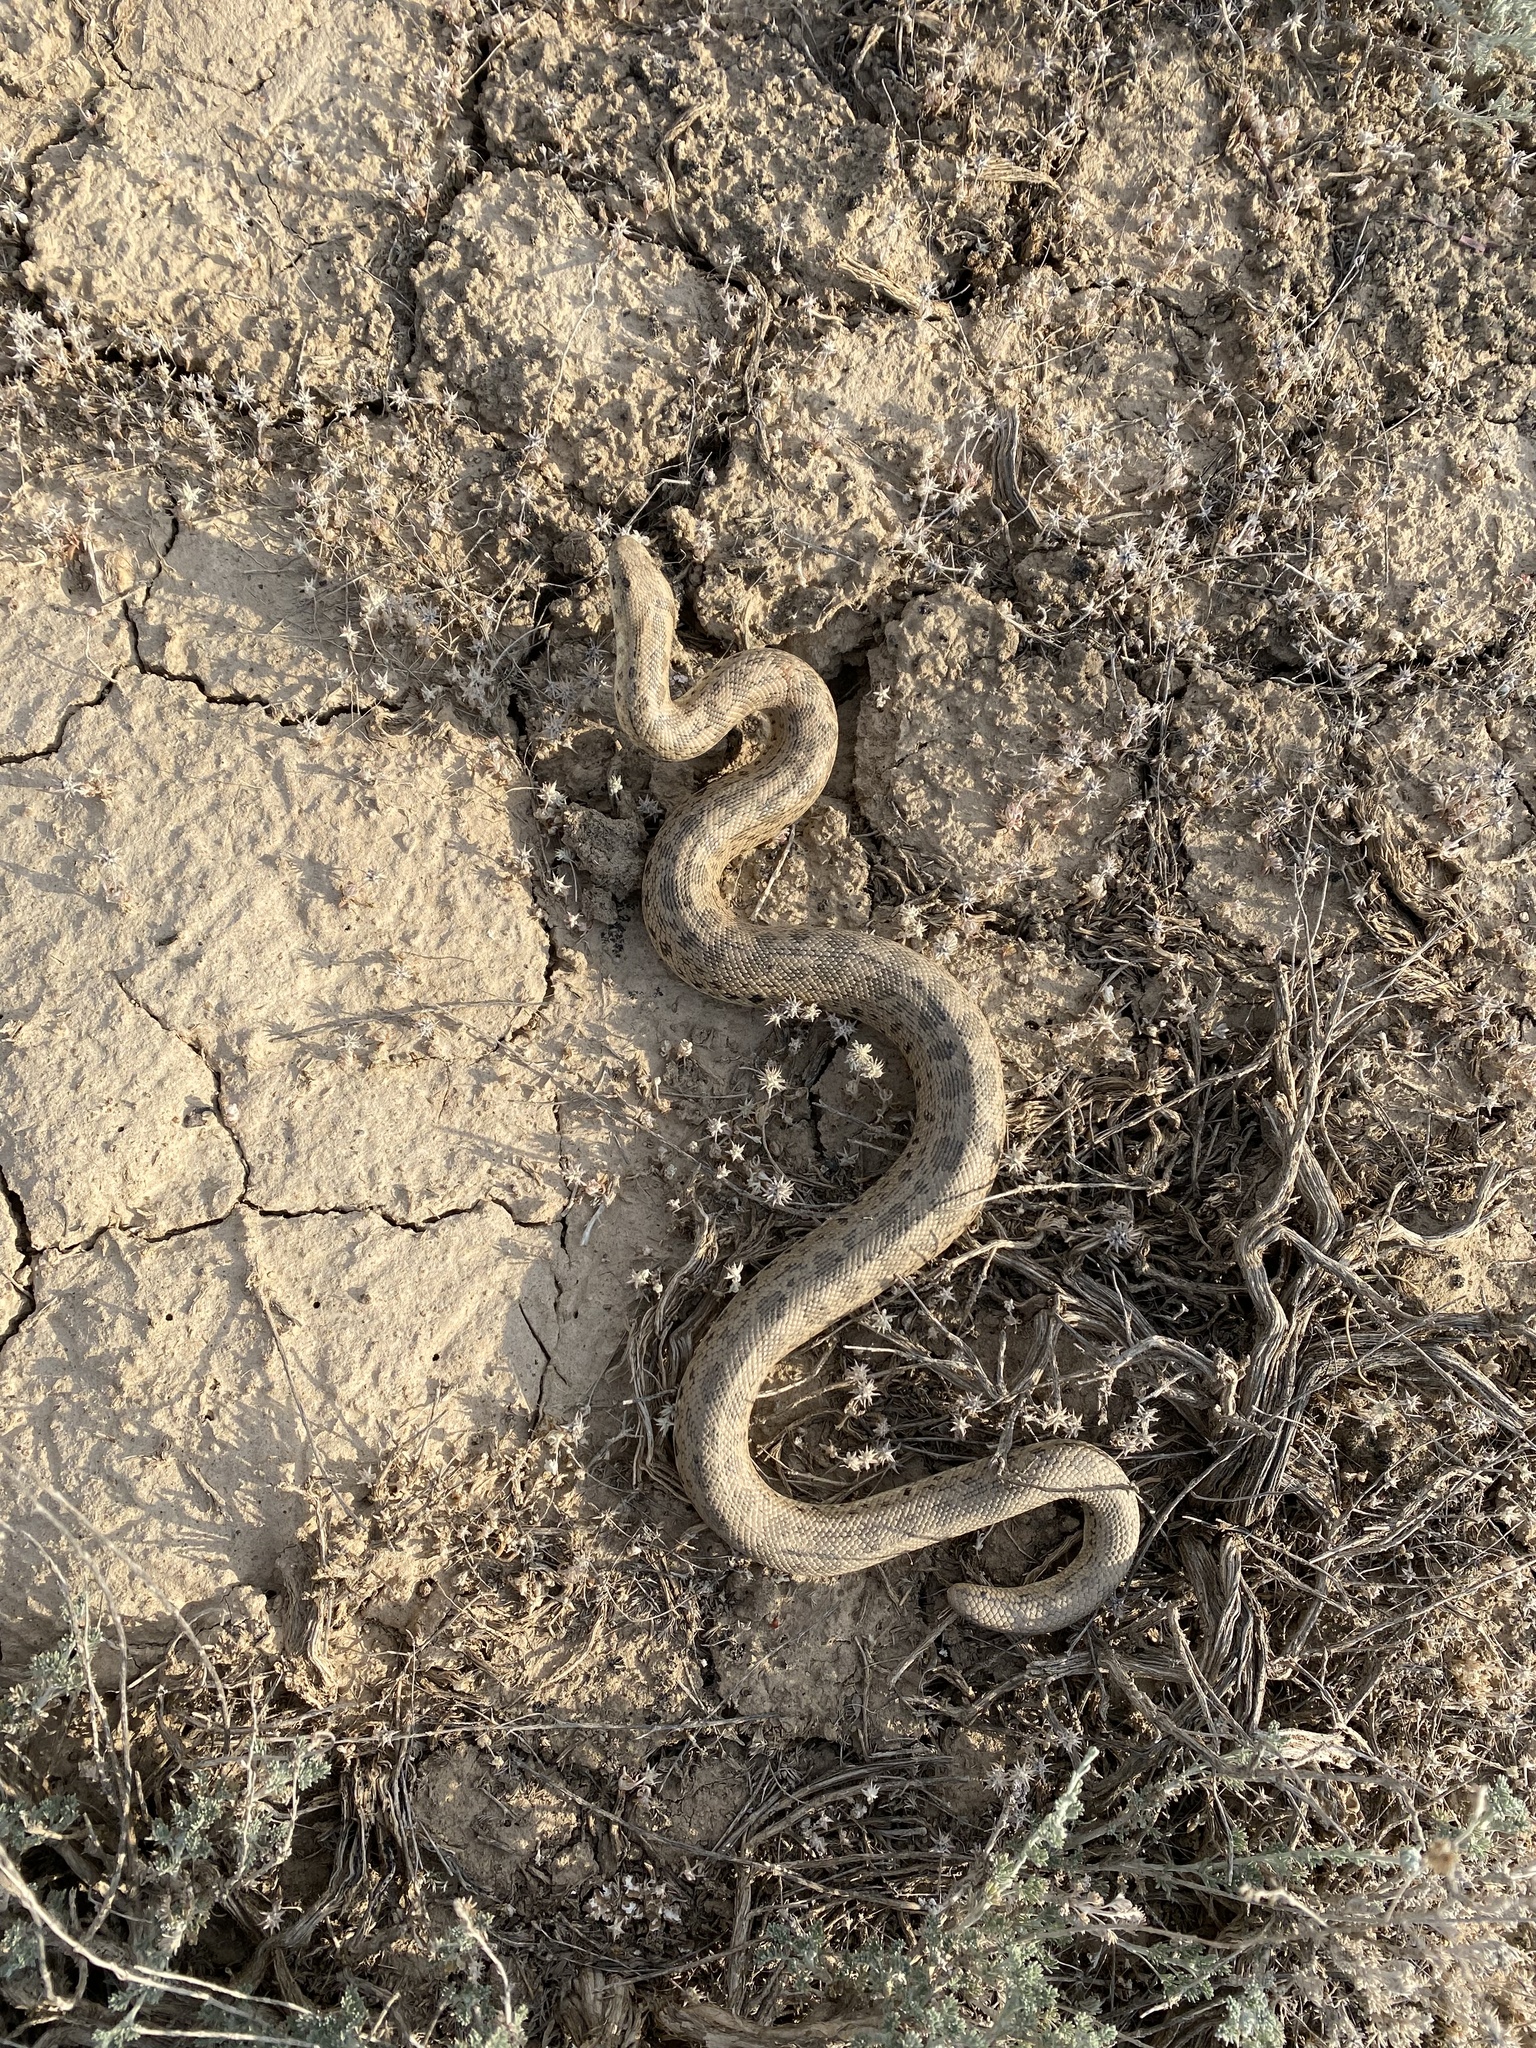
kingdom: Animalia
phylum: Chordata
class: Squamata
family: Boidae
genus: Eryx
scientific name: Eryx miliaris
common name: Desert sand boa
